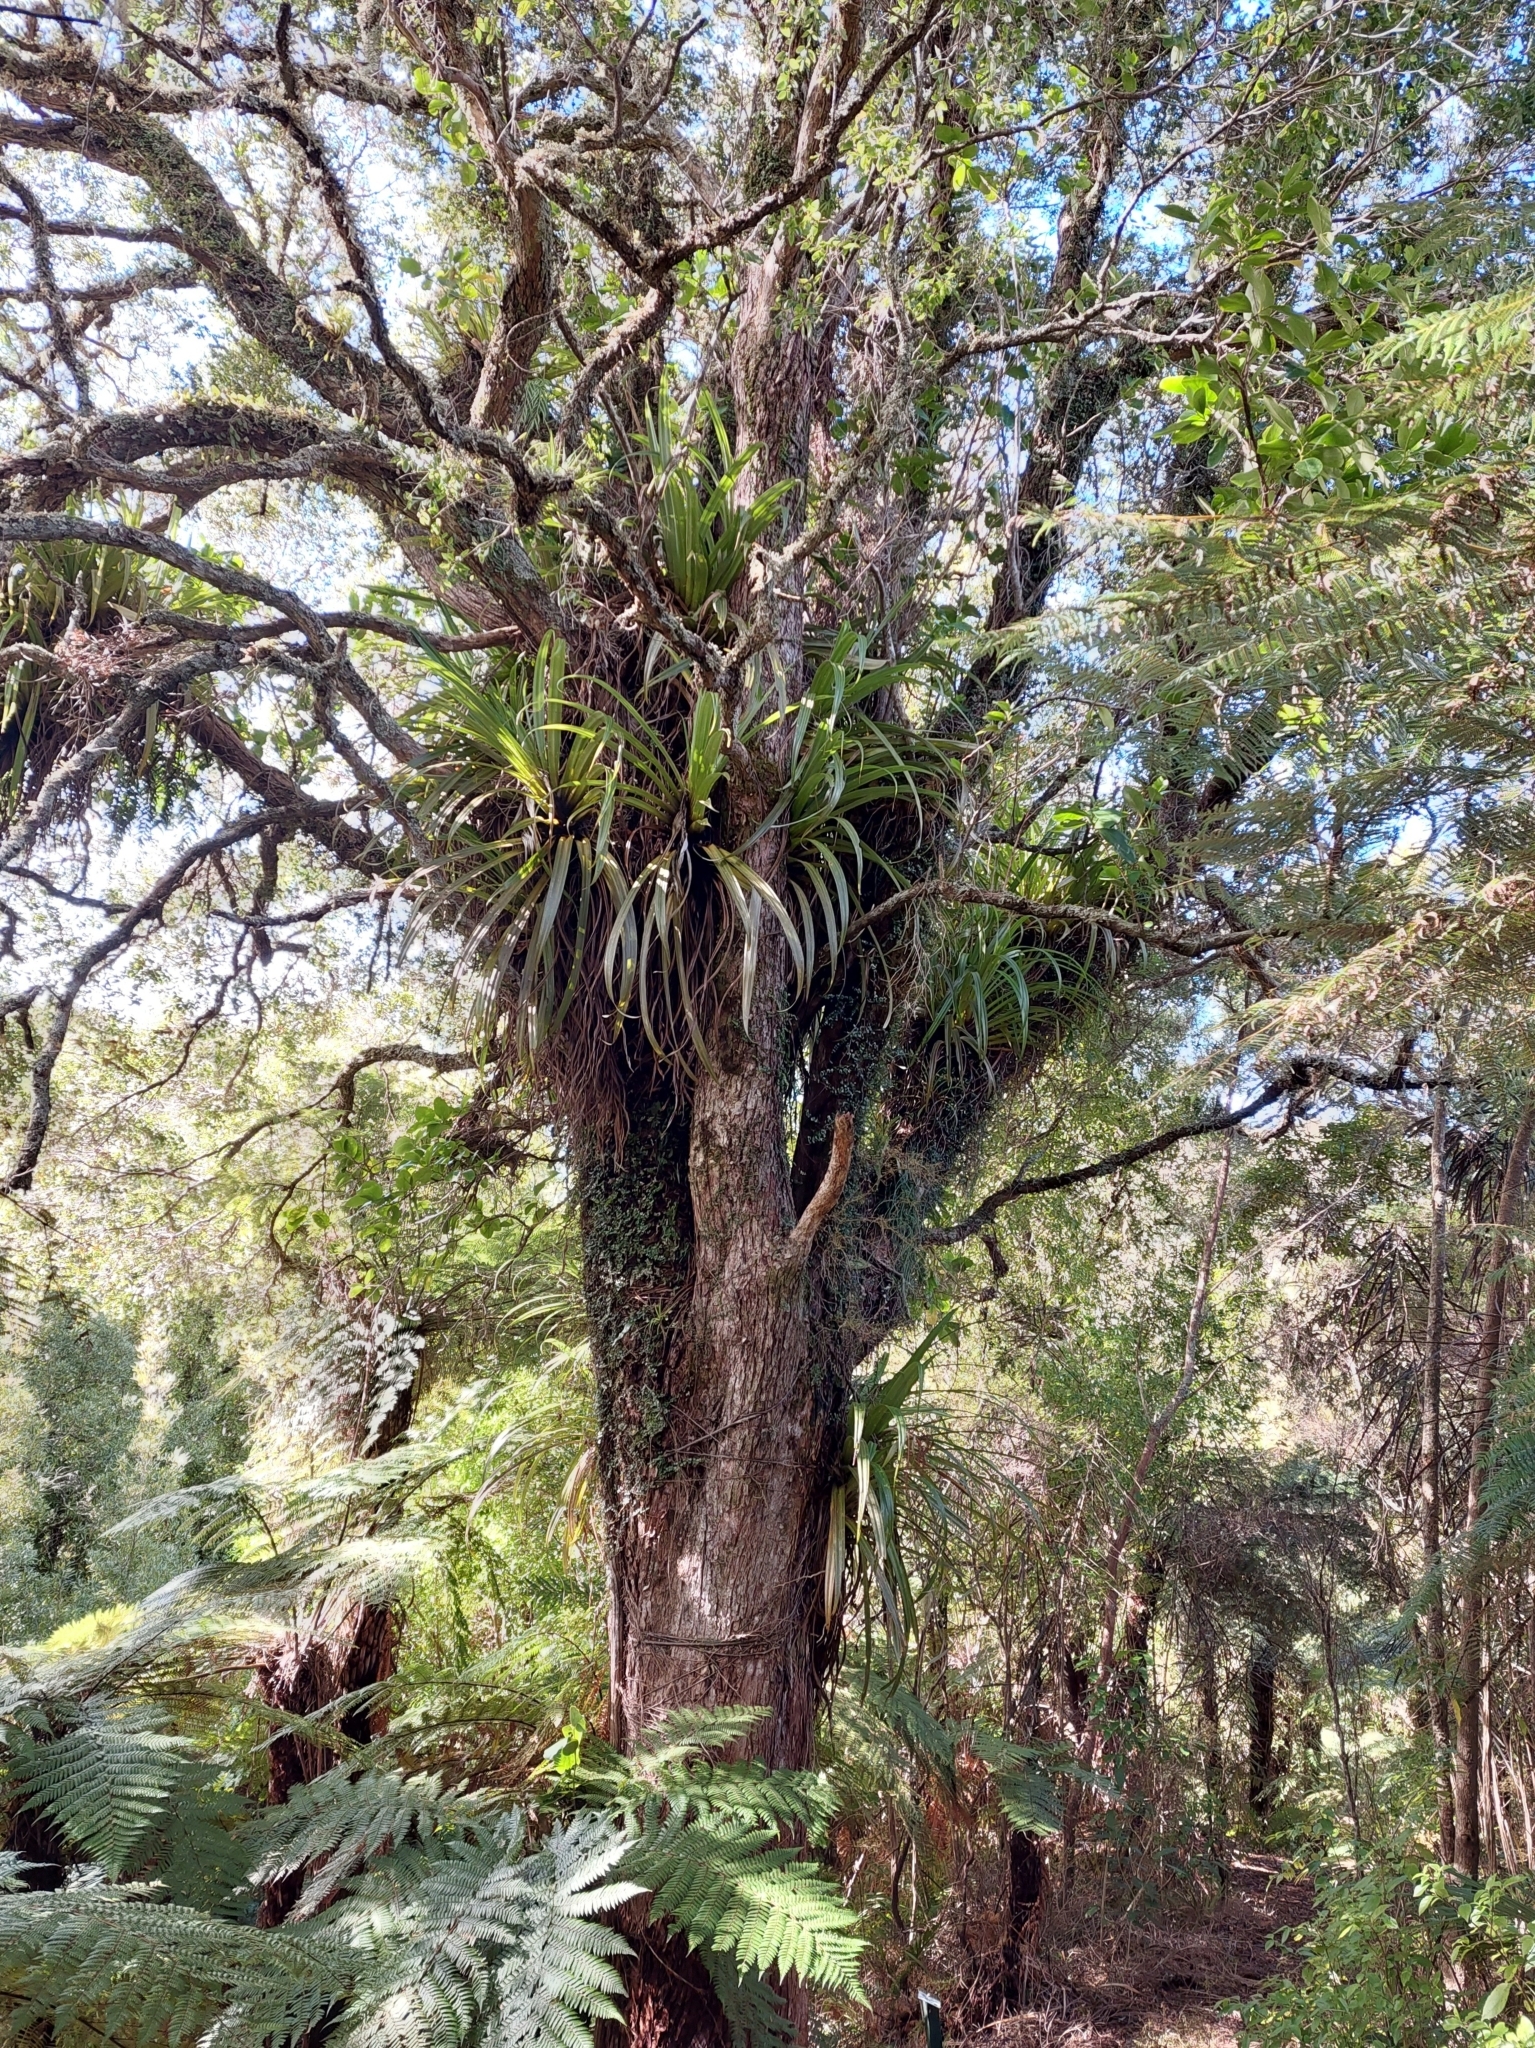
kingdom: Plantae
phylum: Tracheophyta
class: Magnoliopsida
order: Myrtales
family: Myrtaceae
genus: Metrosideros
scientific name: Metrosideros umbellata
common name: Southern rata
